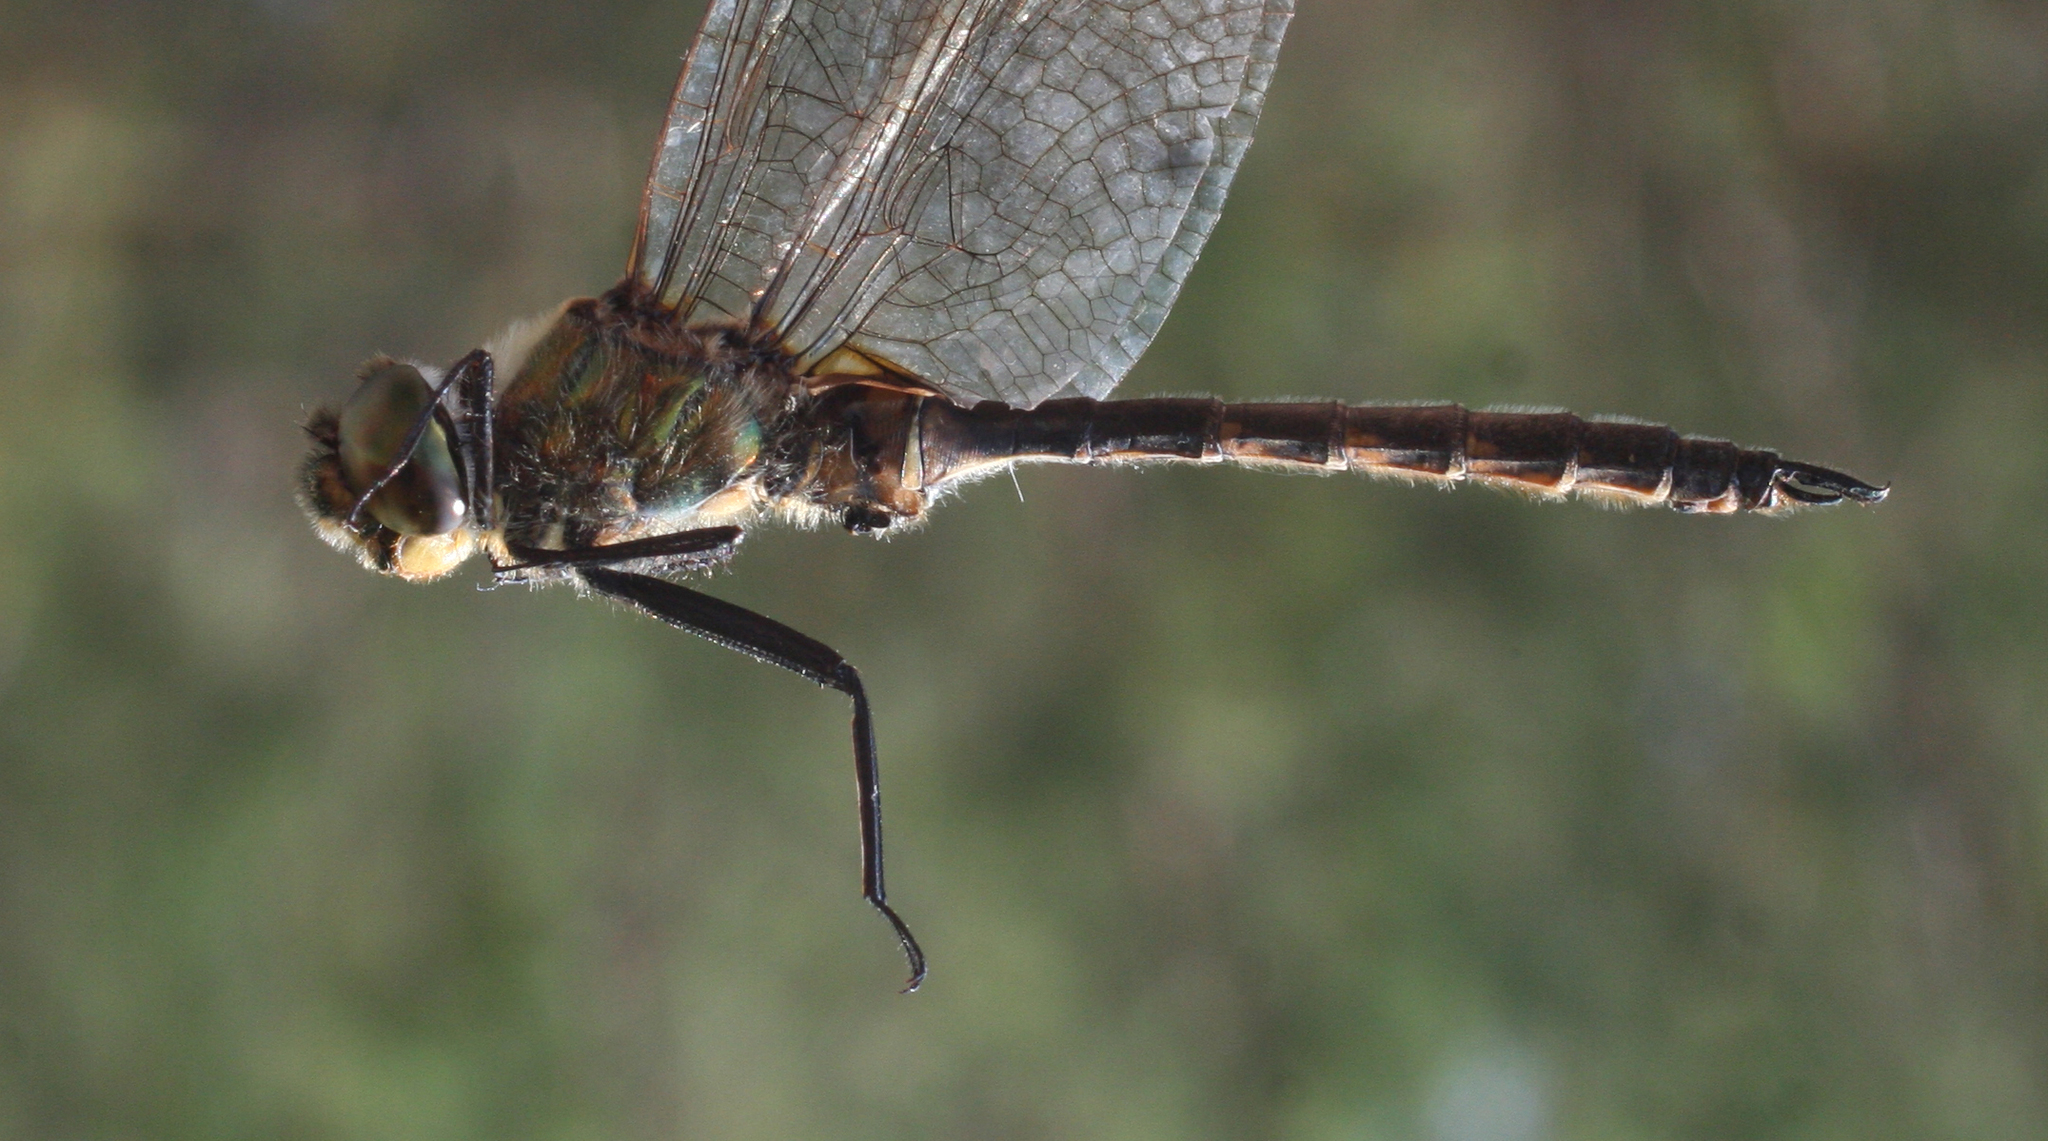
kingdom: Animalia
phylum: Arthropoda
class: Insecta
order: Odonata
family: Corduliidae
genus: Somatochlora
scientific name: Somatochlora flavomaculata
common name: Yellow-spotted emerald
